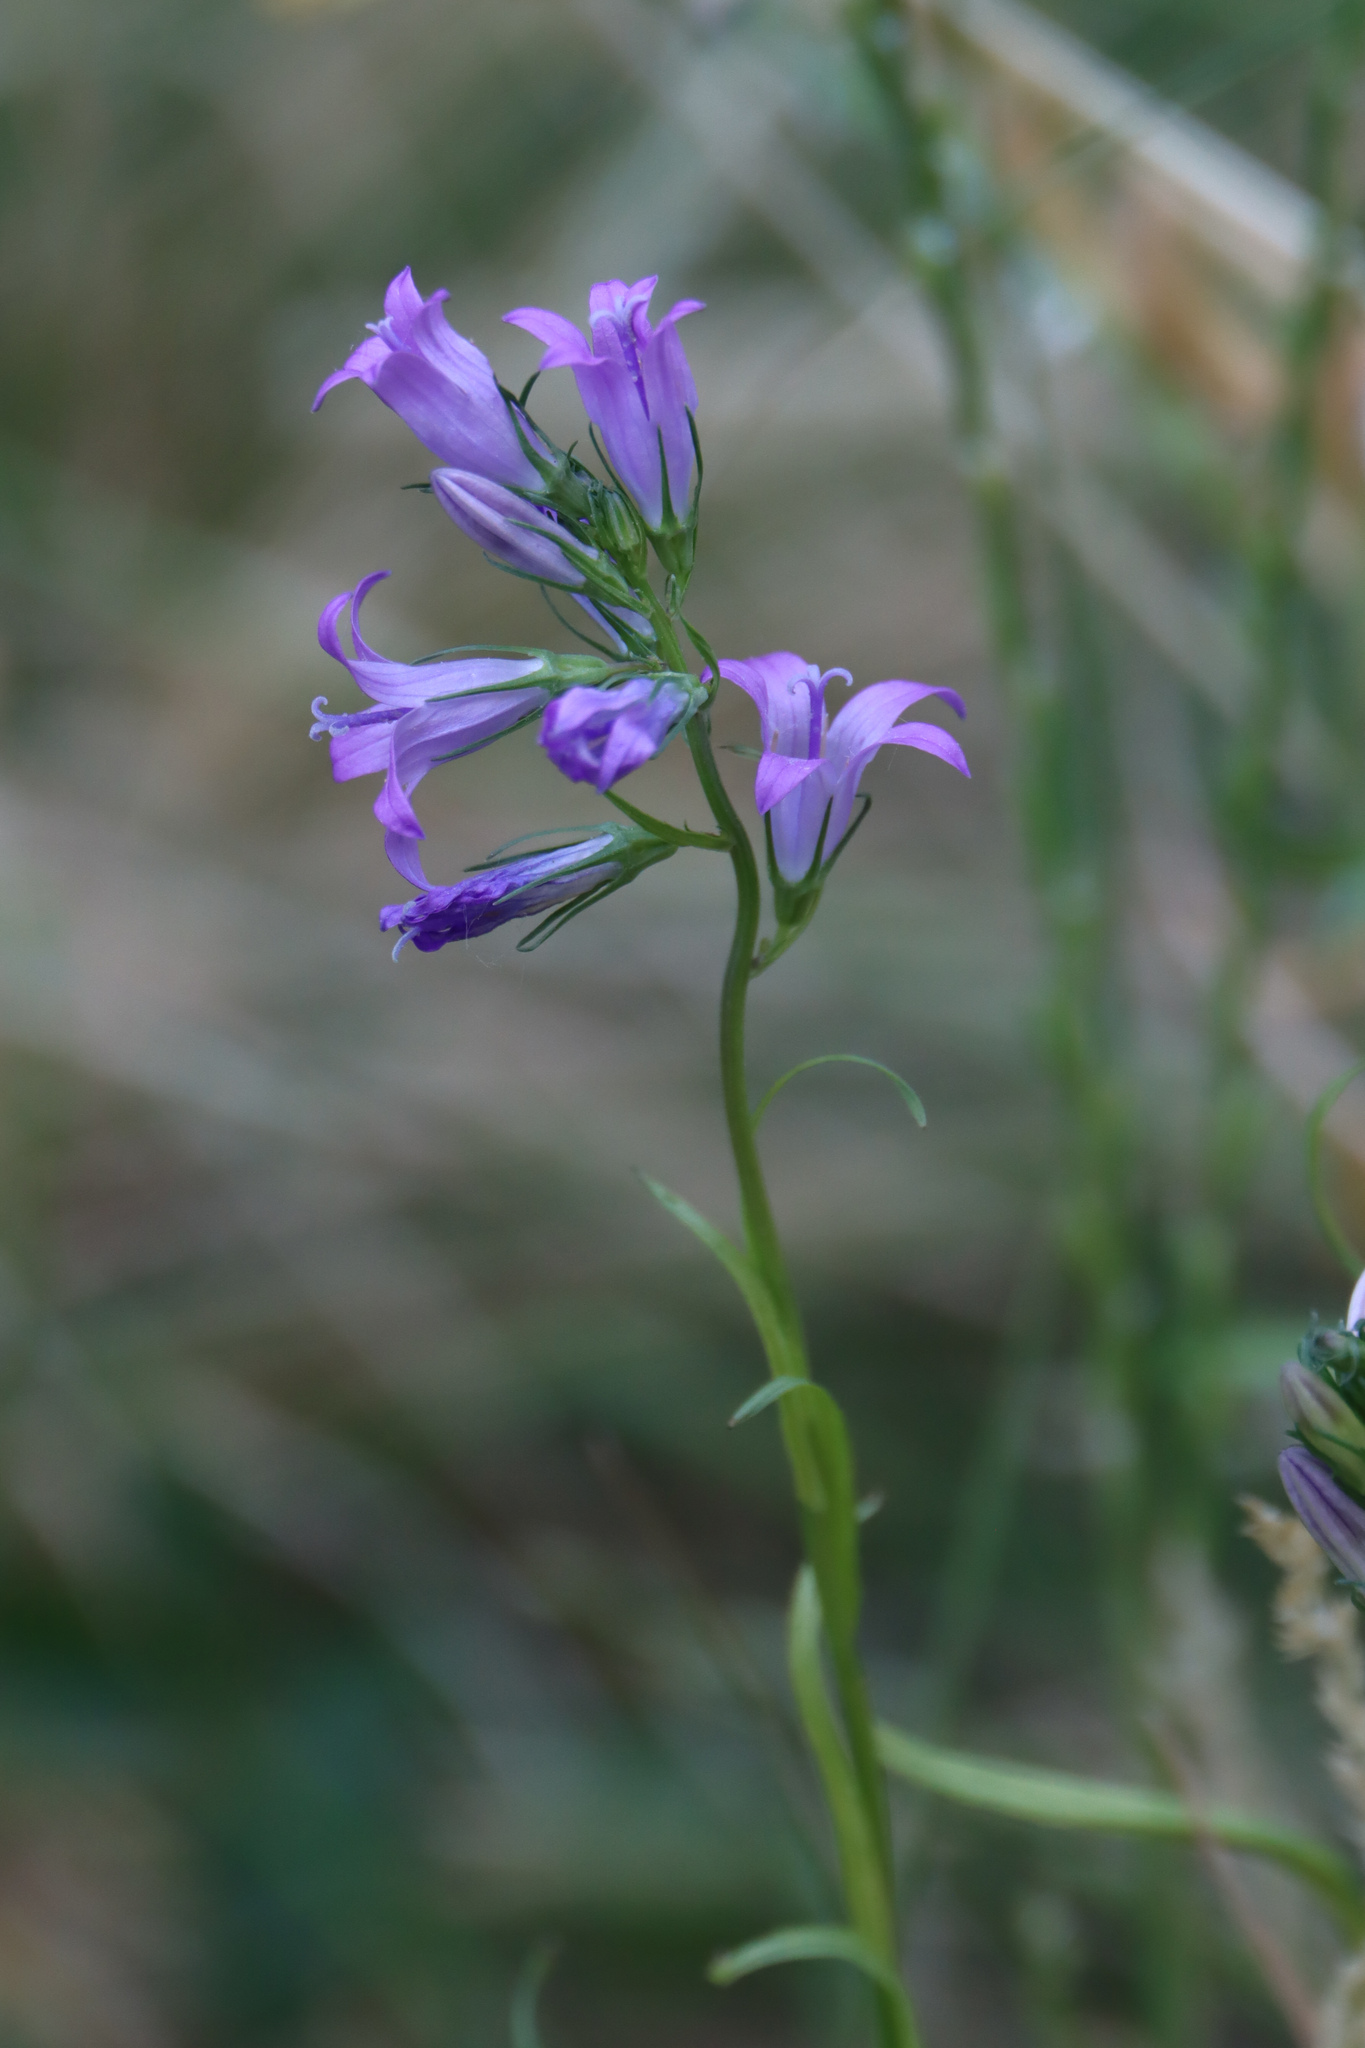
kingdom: Plantae
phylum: Tracheophyta
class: Magnoliopsida
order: Asterales
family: Campanulaceae
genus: Campanula
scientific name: Campanula rapunculus
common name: Rampion bellflower
